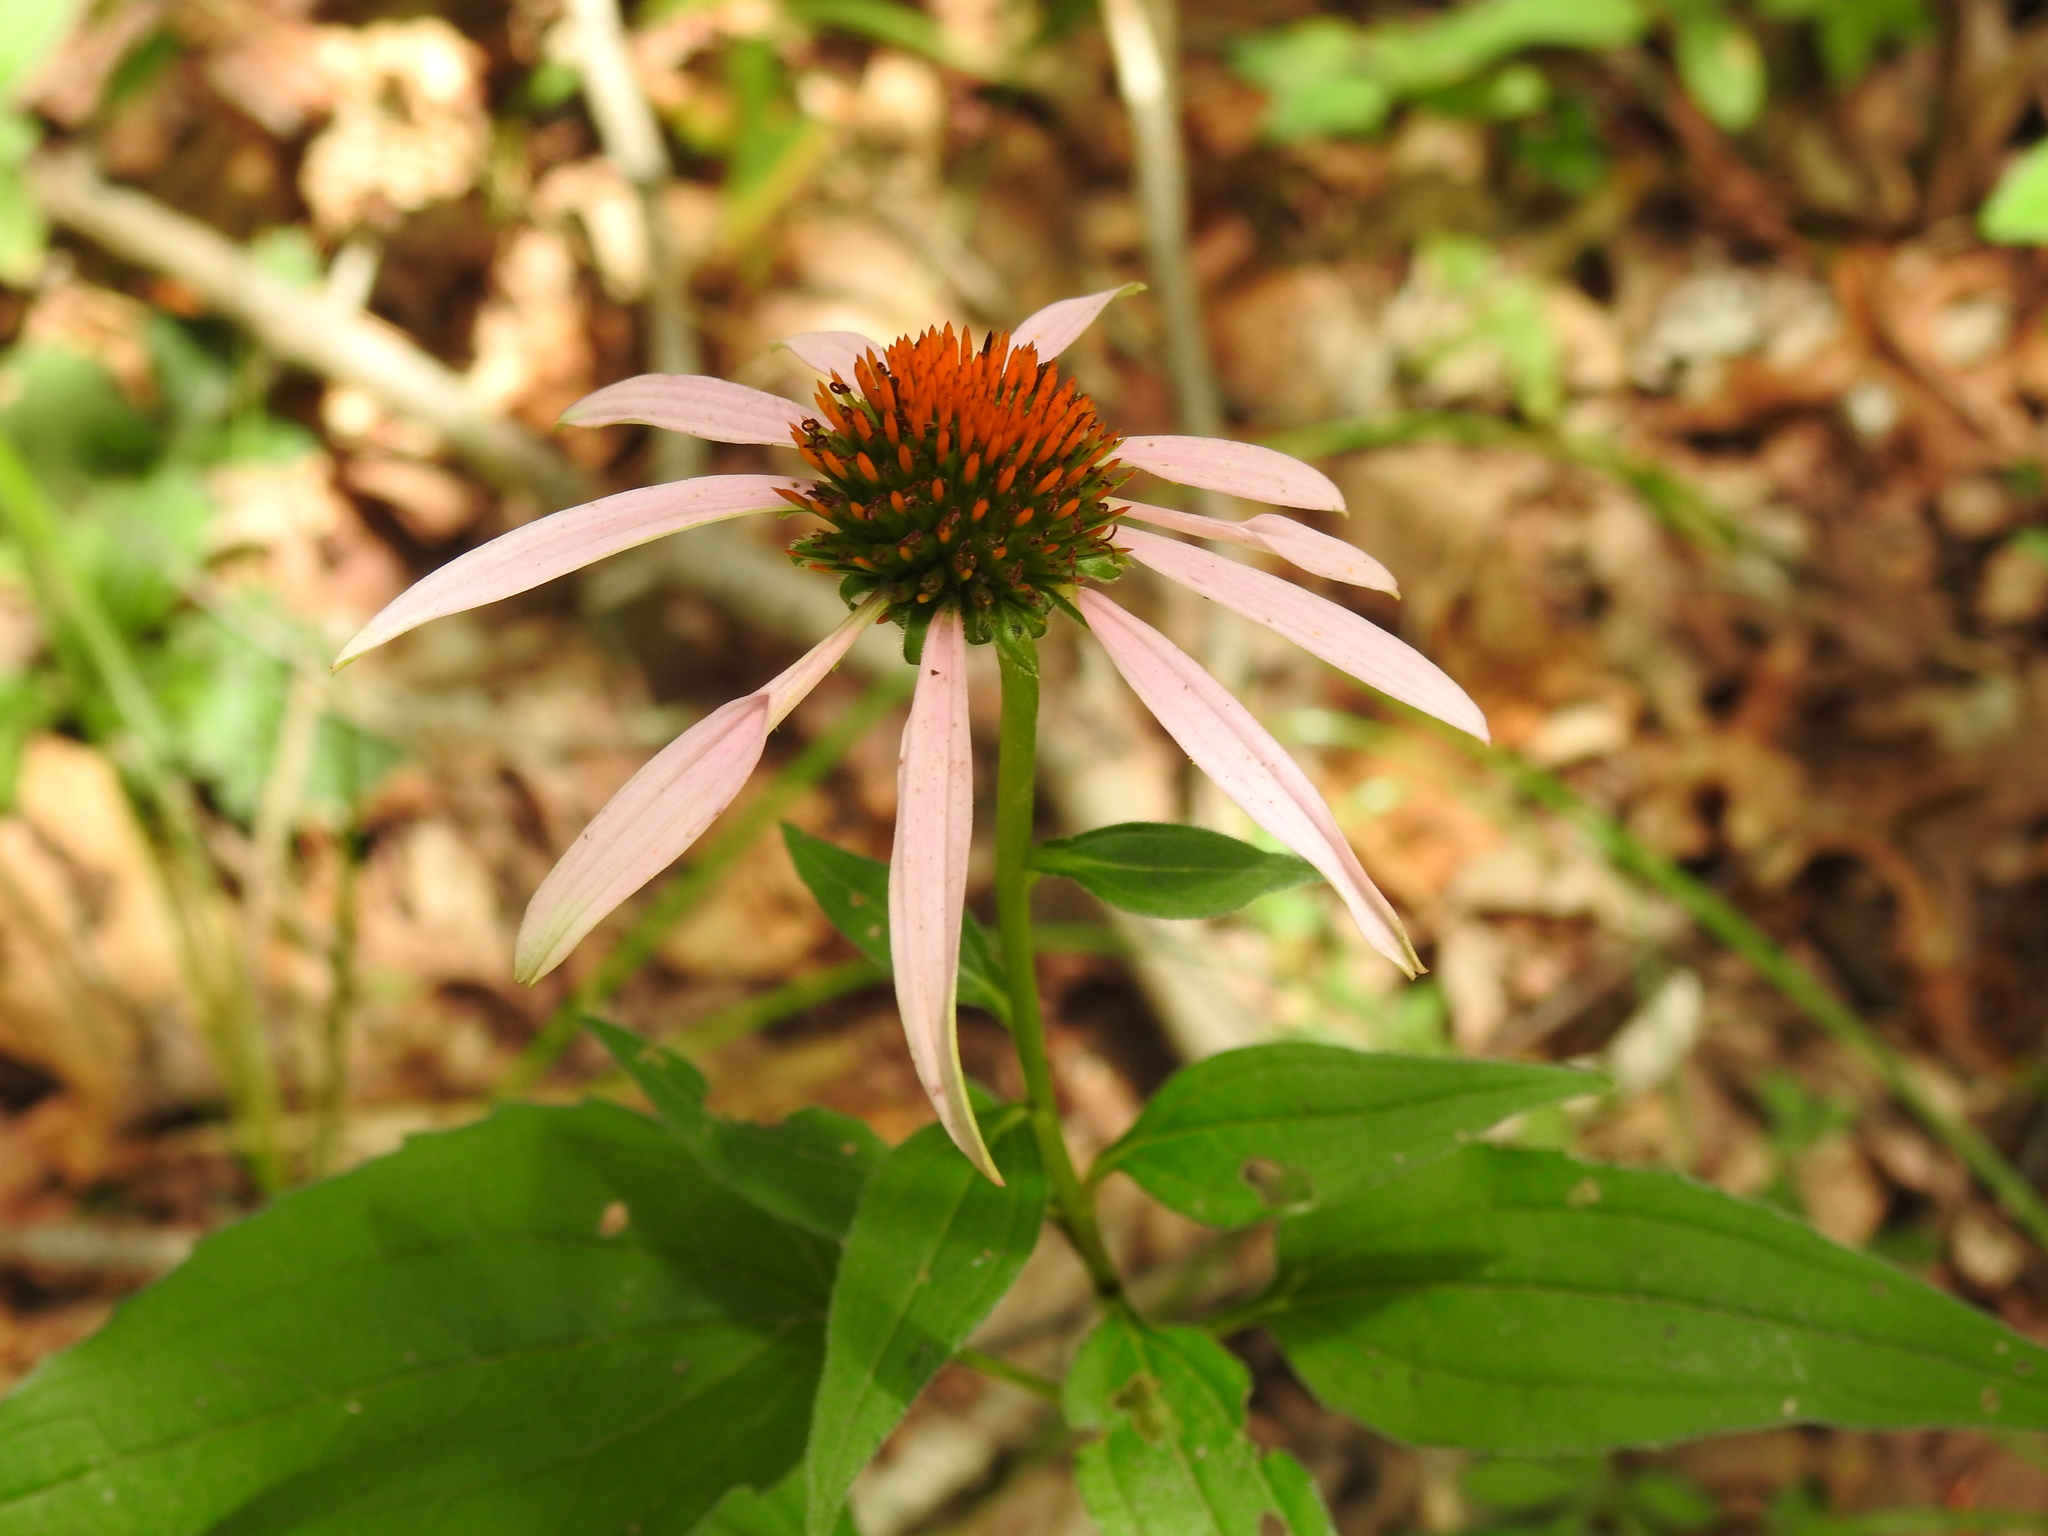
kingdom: Plantae
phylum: Tracheophyta
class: Magnoliopsida
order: Asterales
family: Asteraceae
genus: Echinacea
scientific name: Echinacea purpurea
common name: Broad-leaved purple coneflower
